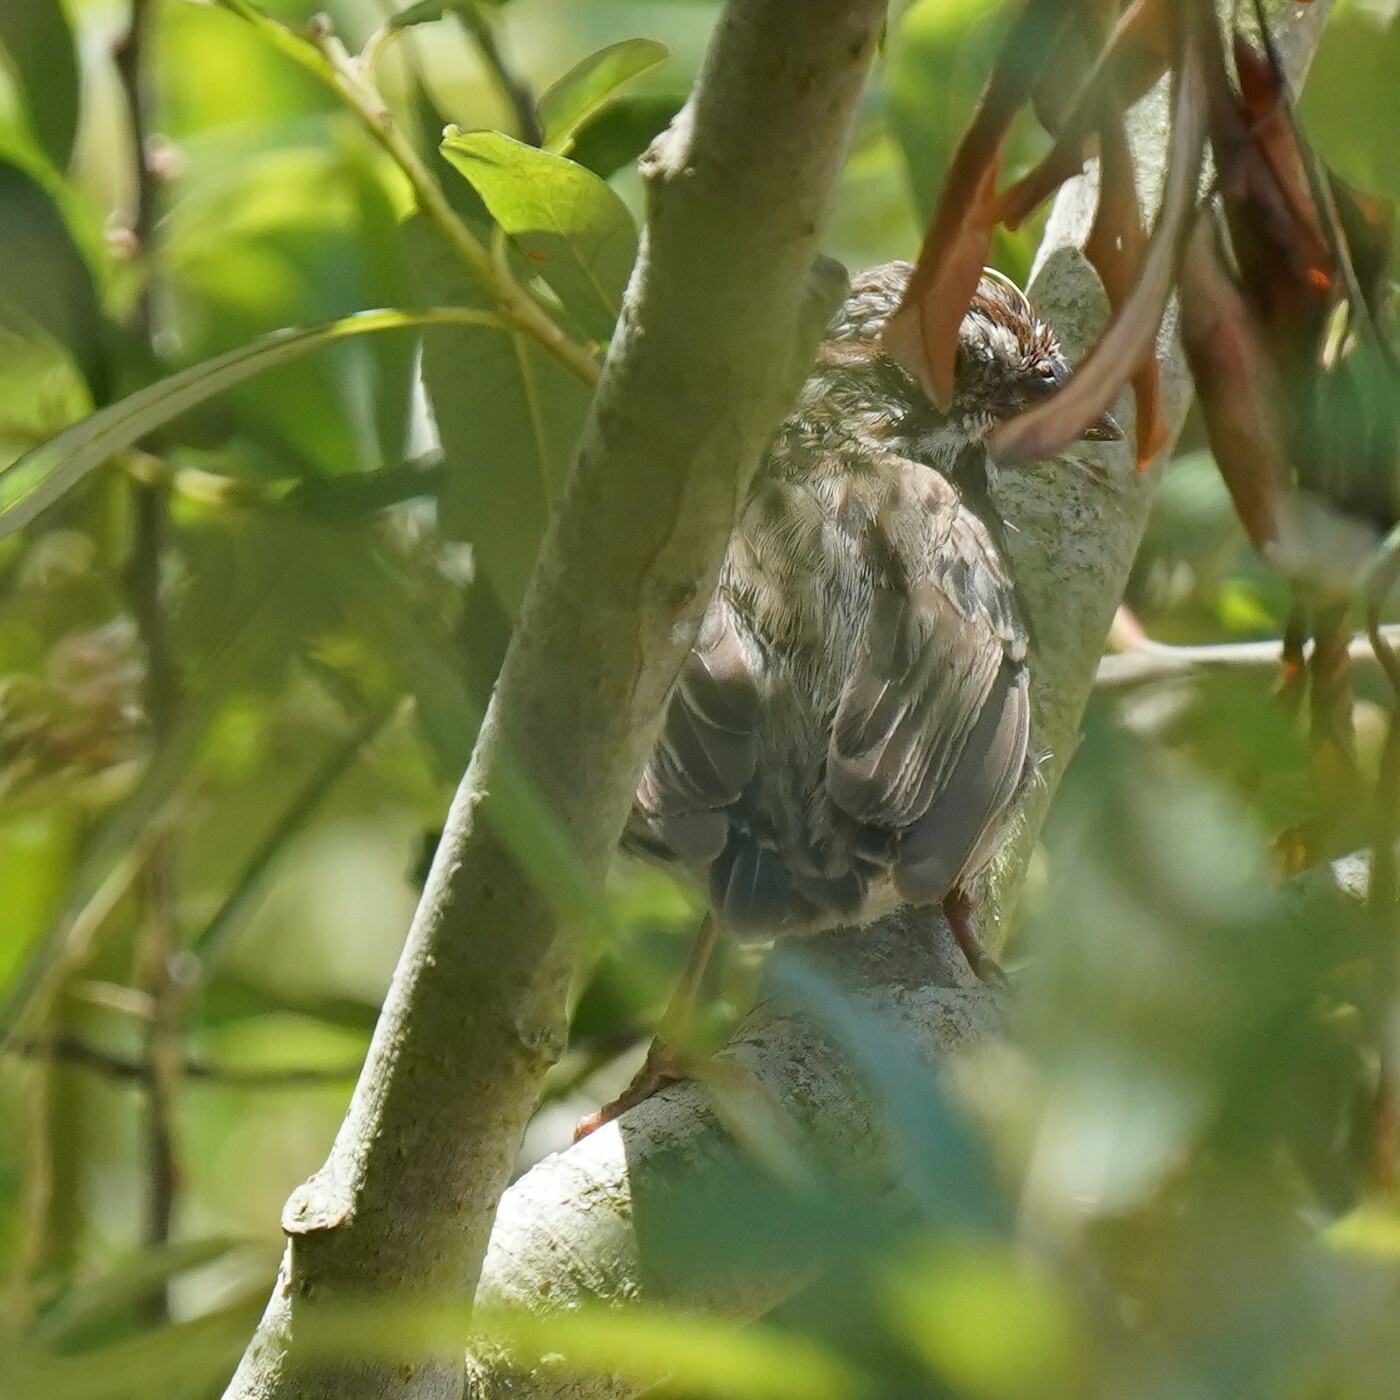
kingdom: Animalia
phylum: Chordata
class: Aves
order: Passeriformes
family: Passerellidae
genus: Melospiza
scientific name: Melospiza melodia
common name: Song sparrow
